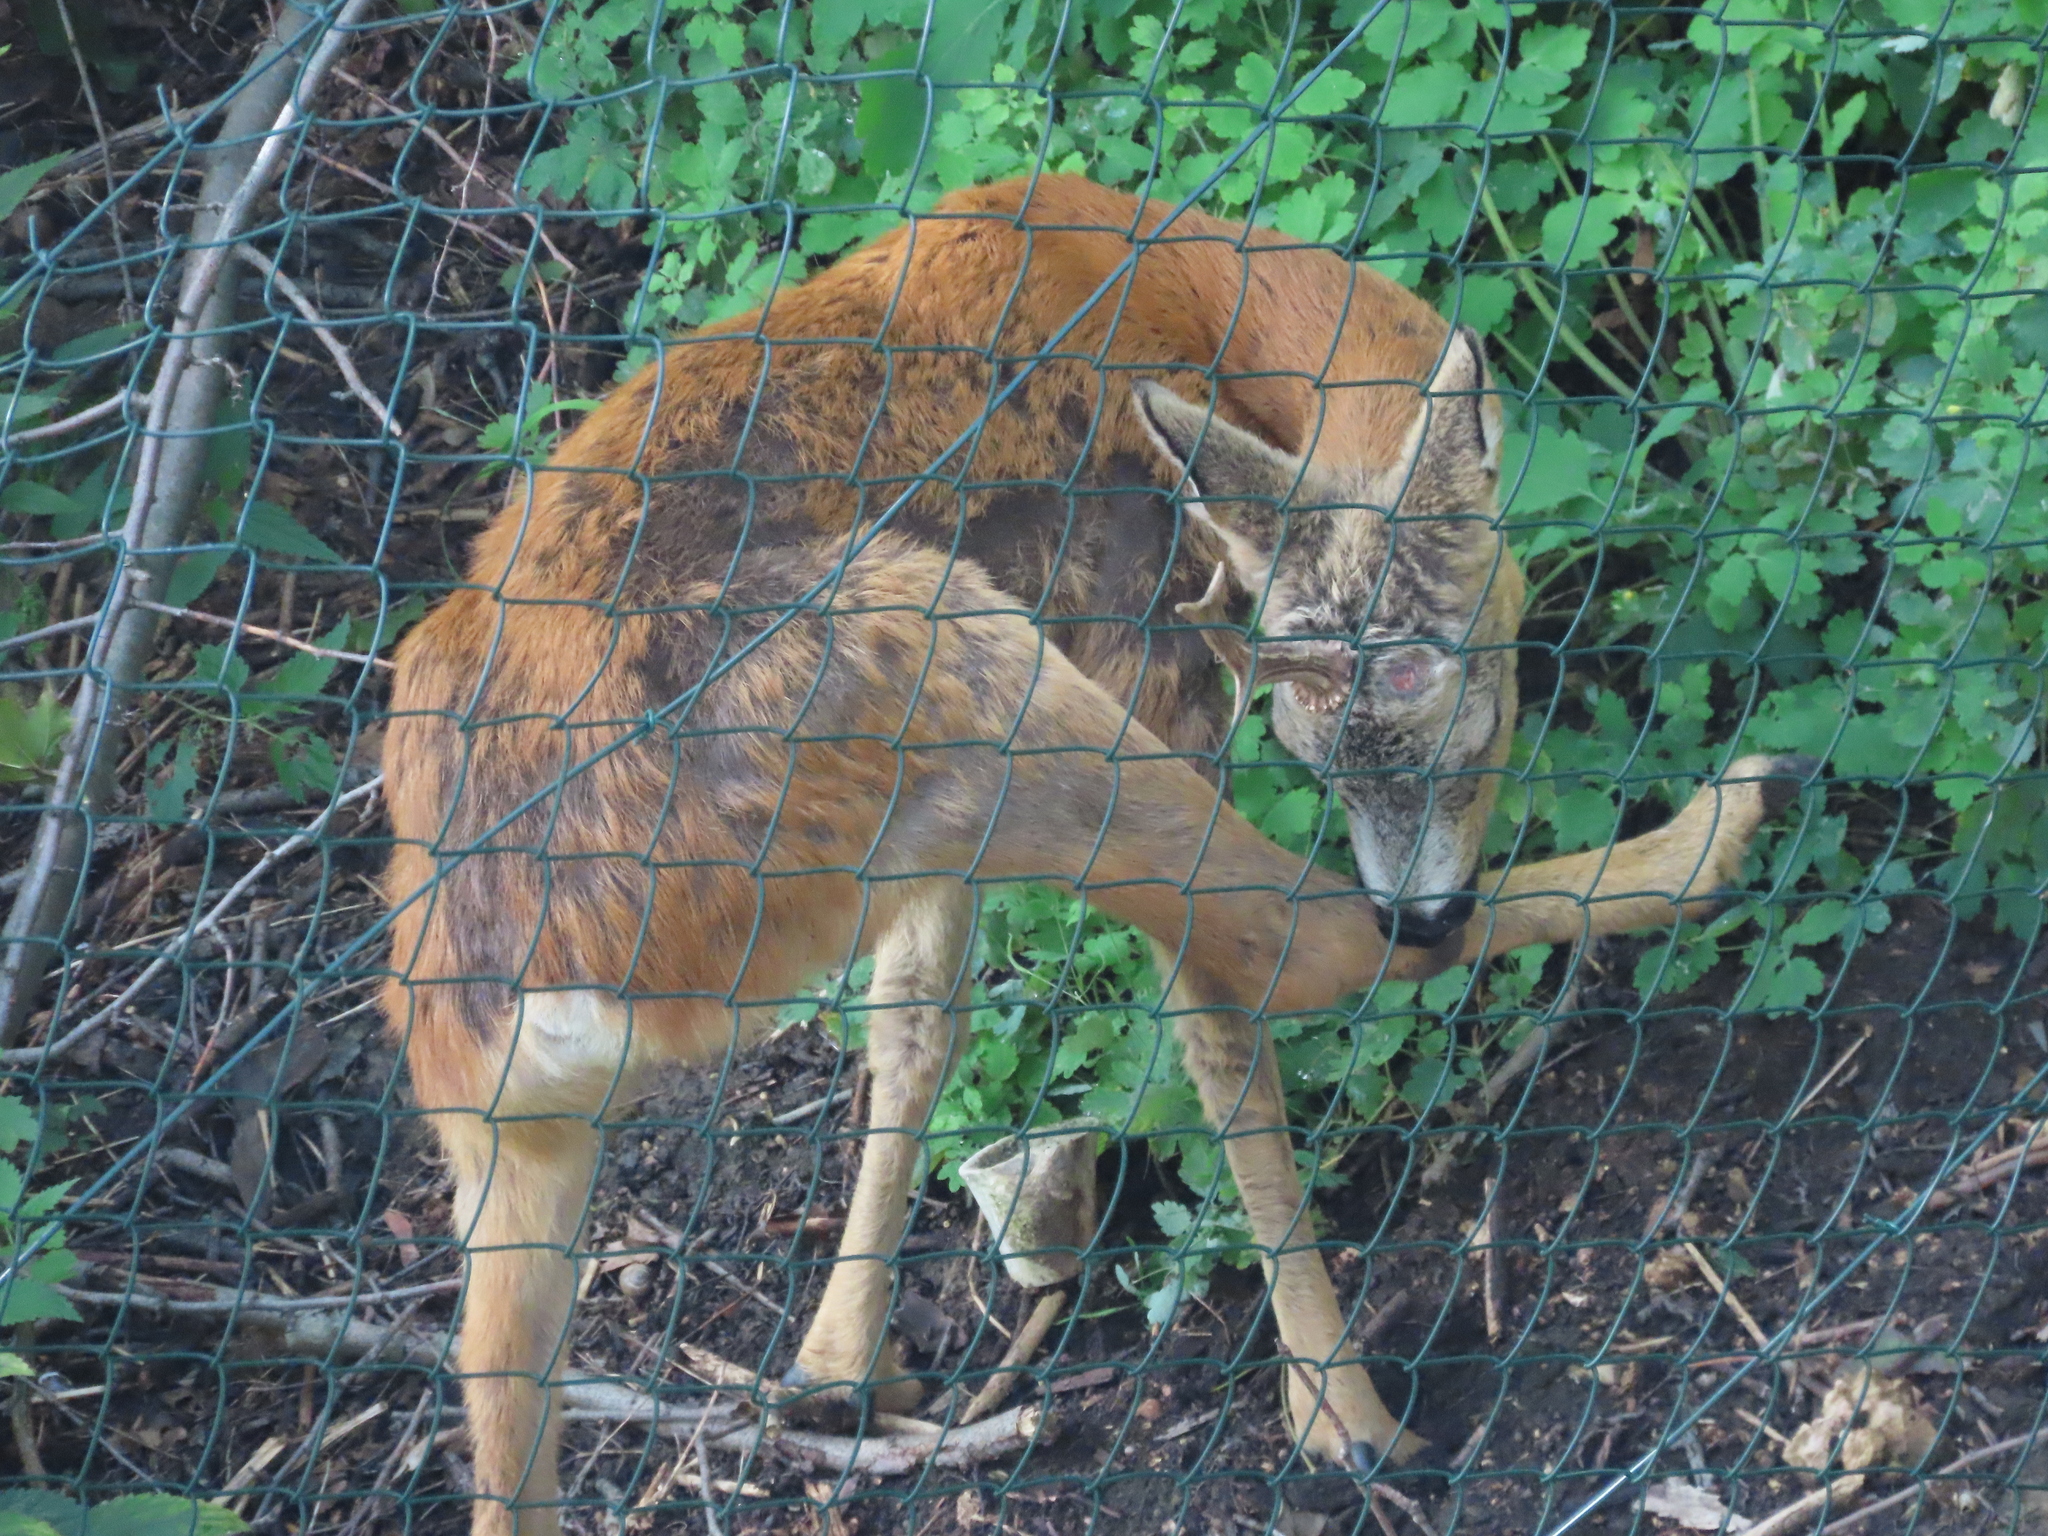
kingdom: Animalia
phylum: Chordata
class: Mammalia
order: Artiodactyla
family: Cervidae
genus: Capreolus
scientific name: Capreolus capreolus
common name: Western roe deer
